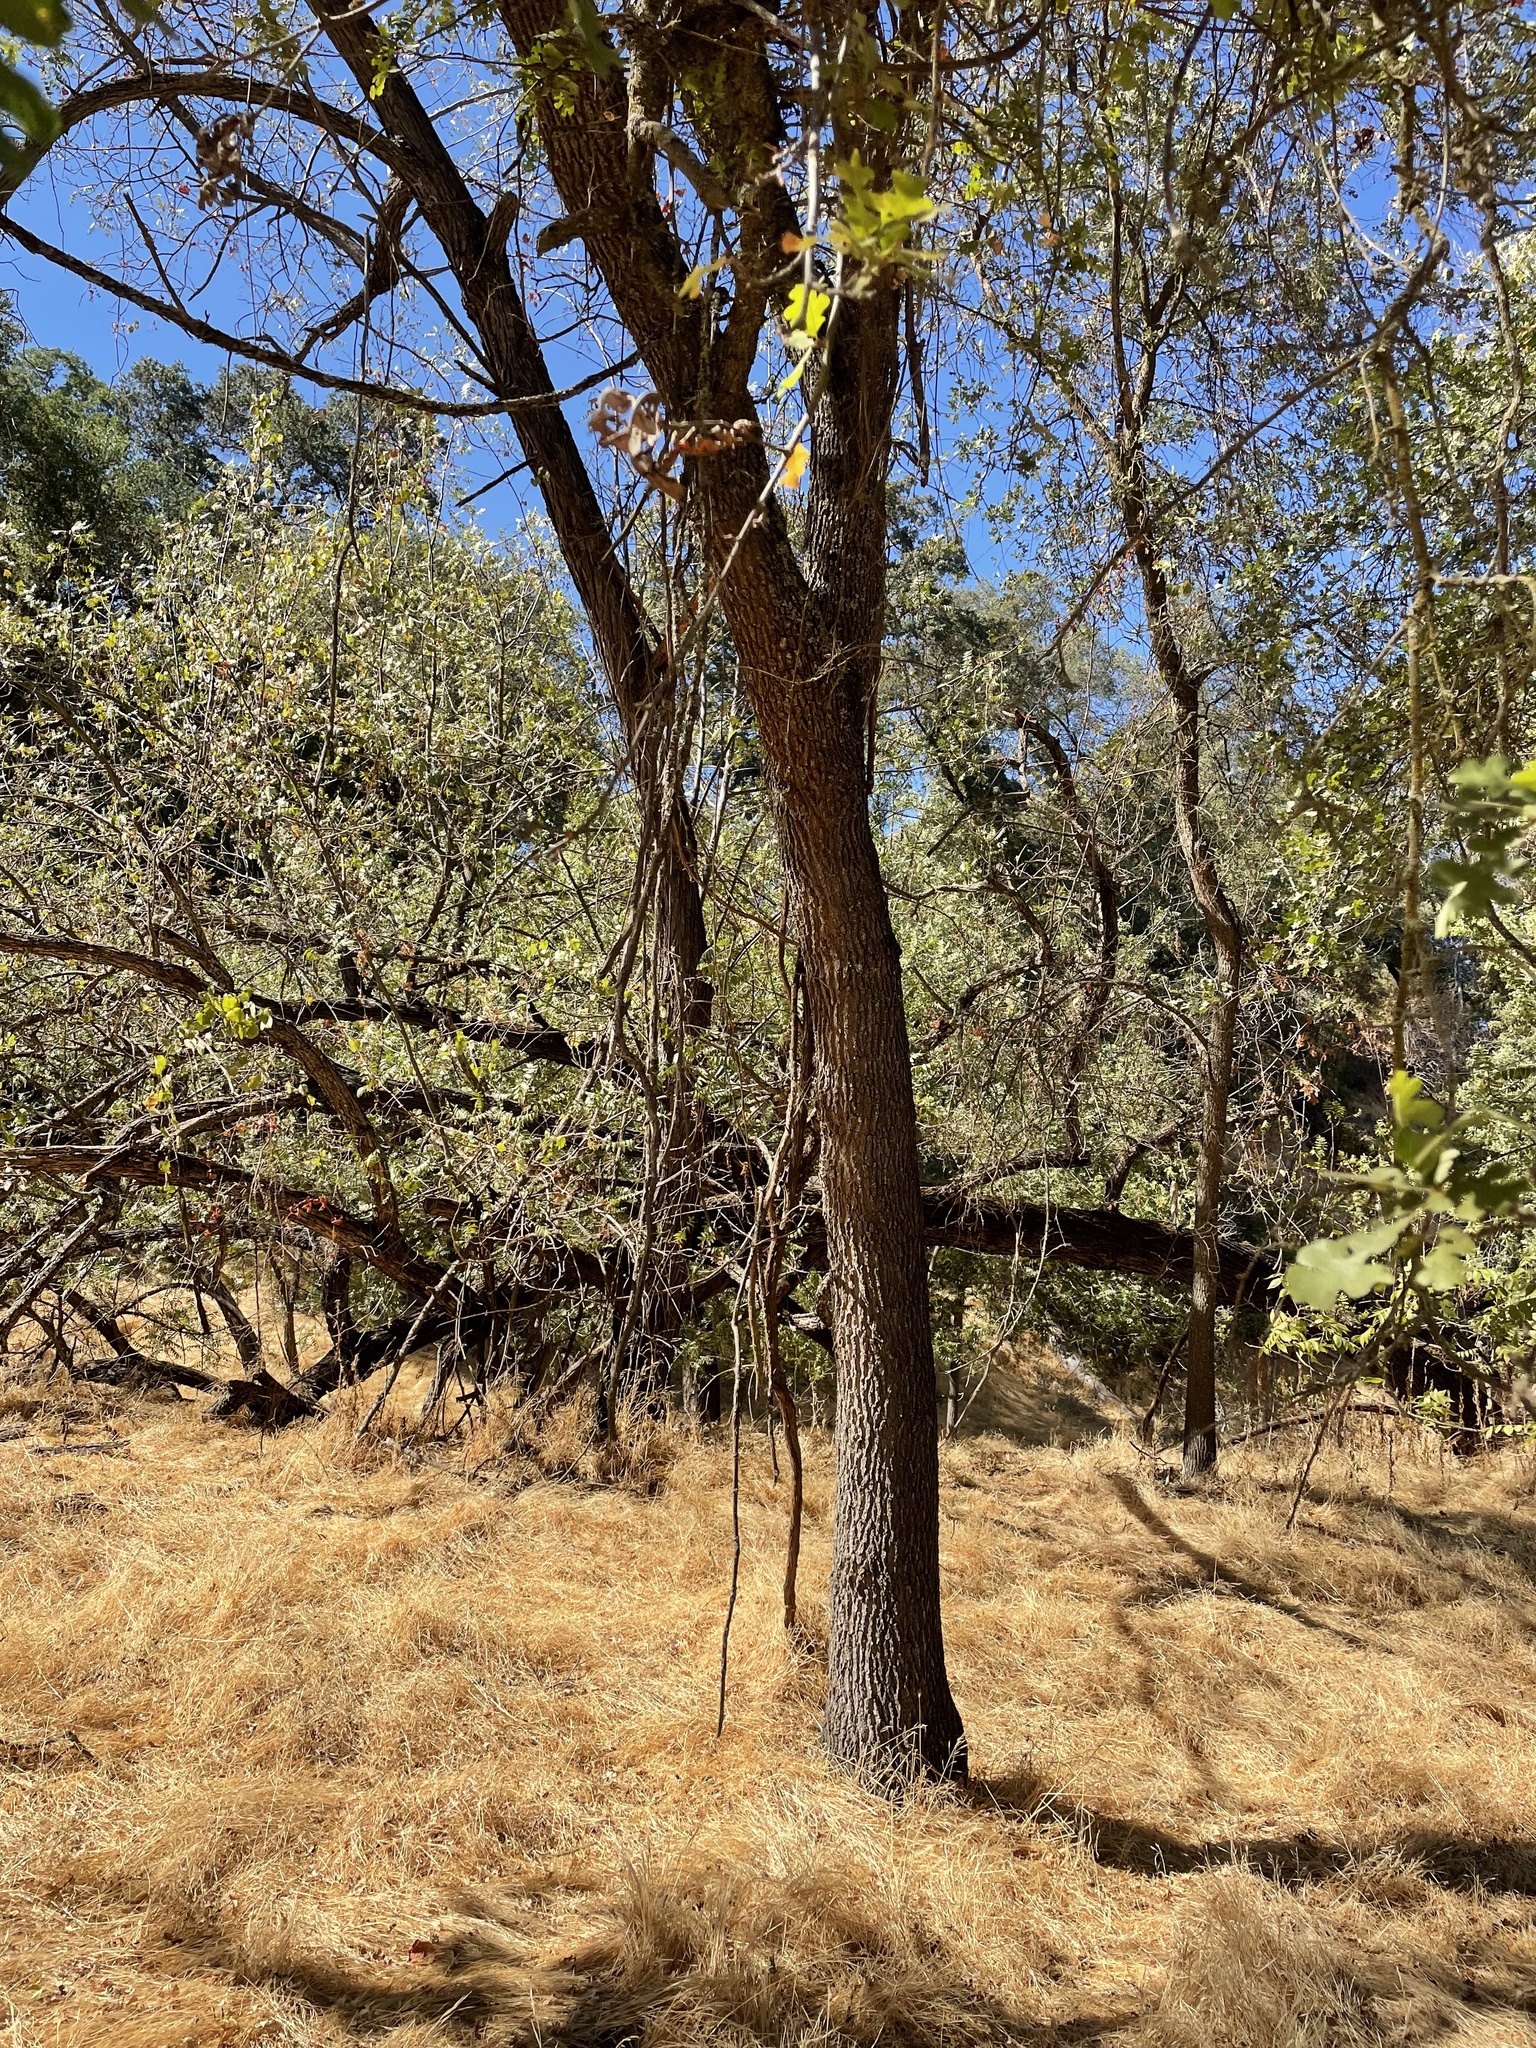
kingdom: Plantae
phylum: Tracheophyta
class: Magnoliopsida
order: Fagales
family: Fagaceae
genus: Quercus
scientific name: Quercus lobata
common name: Valley oak
